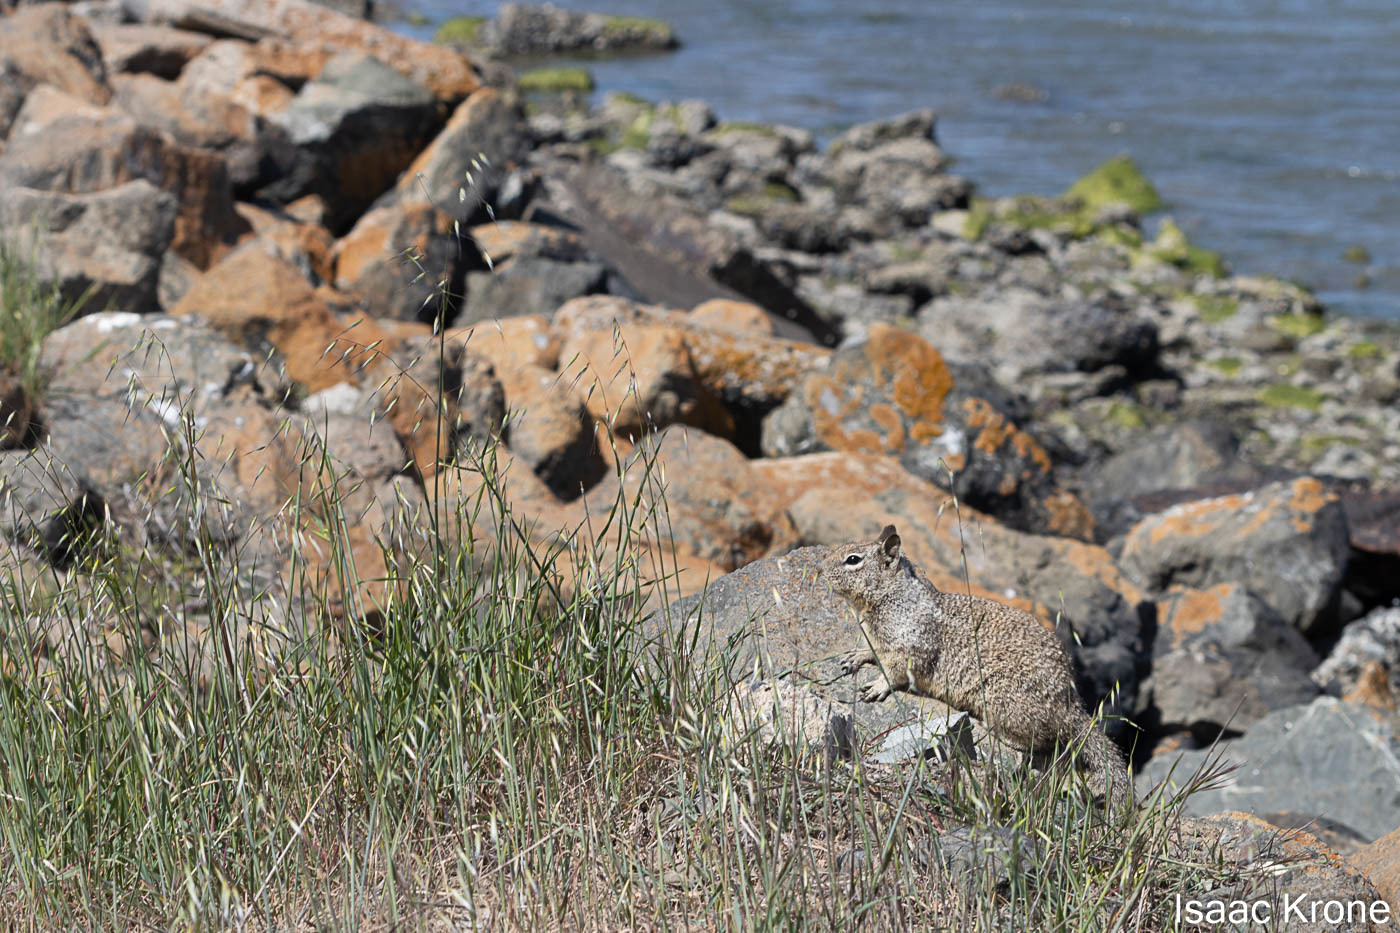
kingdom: Animalia
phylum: Chordata
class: Mammalia
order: Rodentia
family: Sciuridae
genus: Otospermophilus
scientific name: Otospermophilus beecheyi
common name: California ground squirrel
